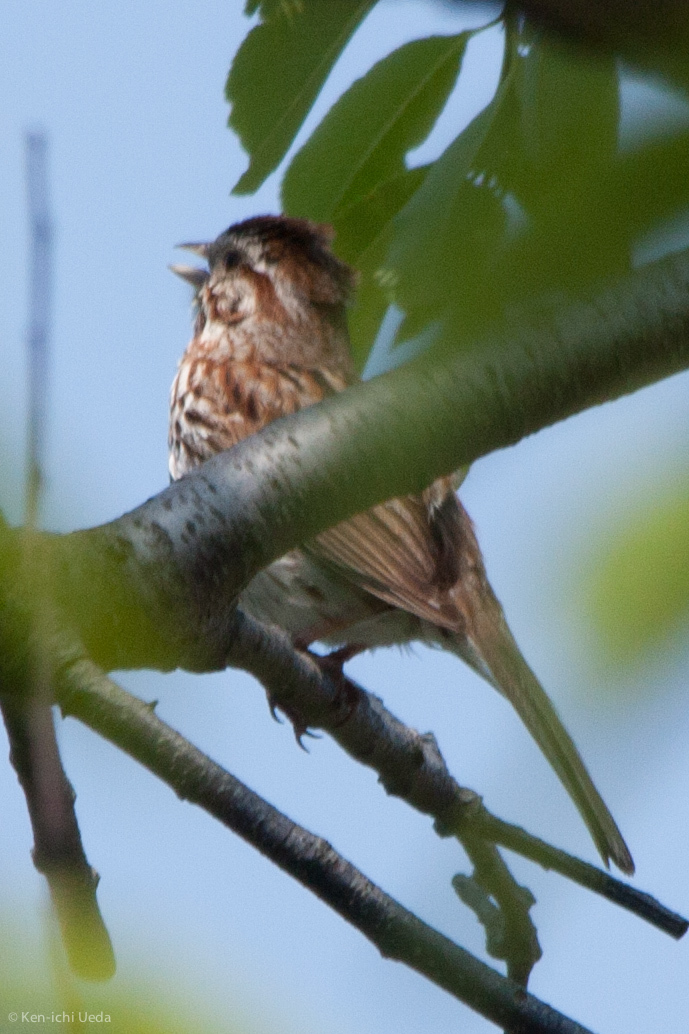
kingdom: Animalia
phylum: Chordata
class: Aves
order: Passeriformes
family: Passerellidae
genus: Melospiza
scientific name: Melospiza melodia
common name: Song sparrow
